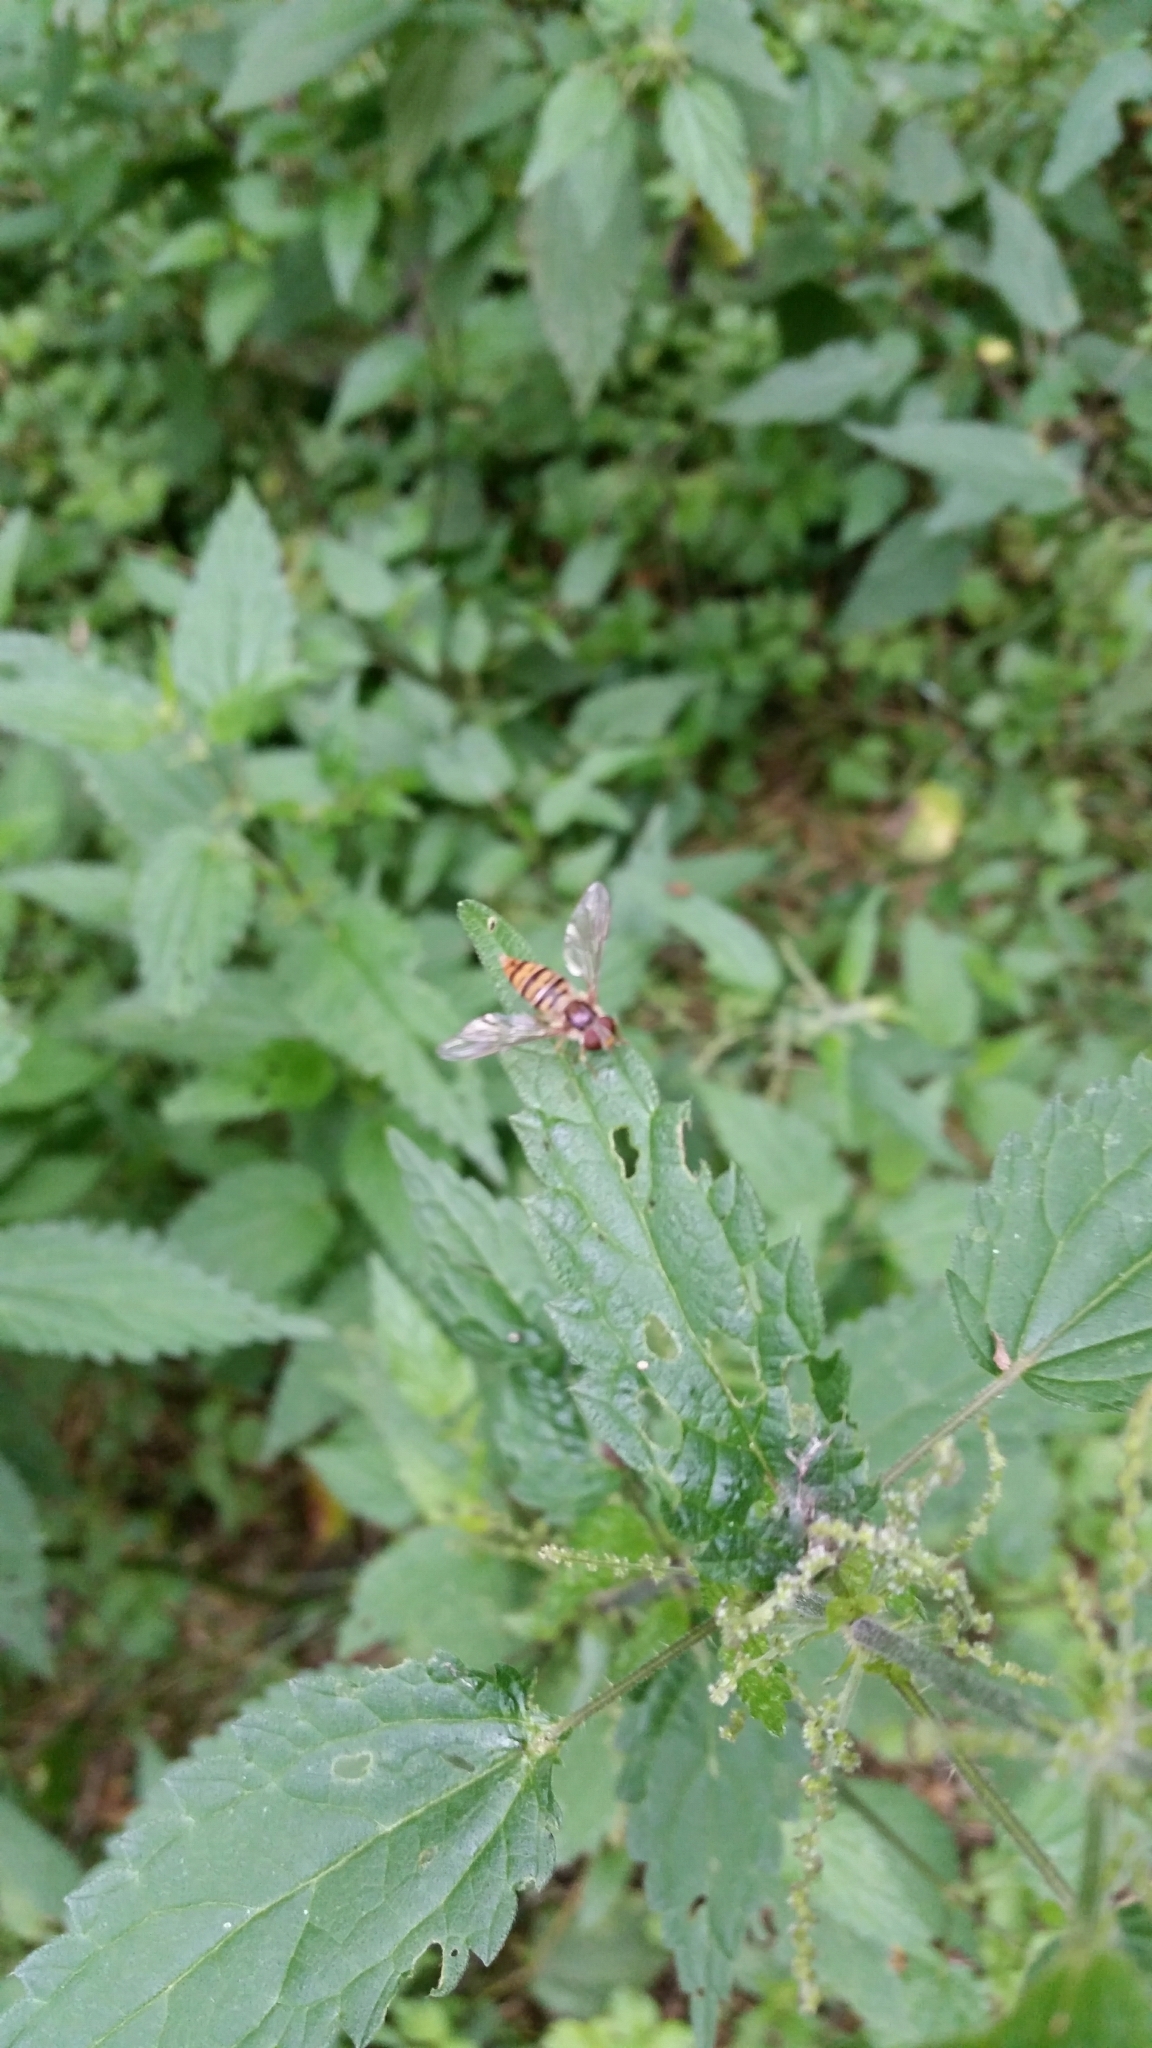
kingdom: Animalia
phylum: Arthropoda
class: Insecta
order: Diptera
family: Syrphidae
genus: Episyrphus
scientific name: Episyrphus balteatus
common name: Marmalade hoverfly
